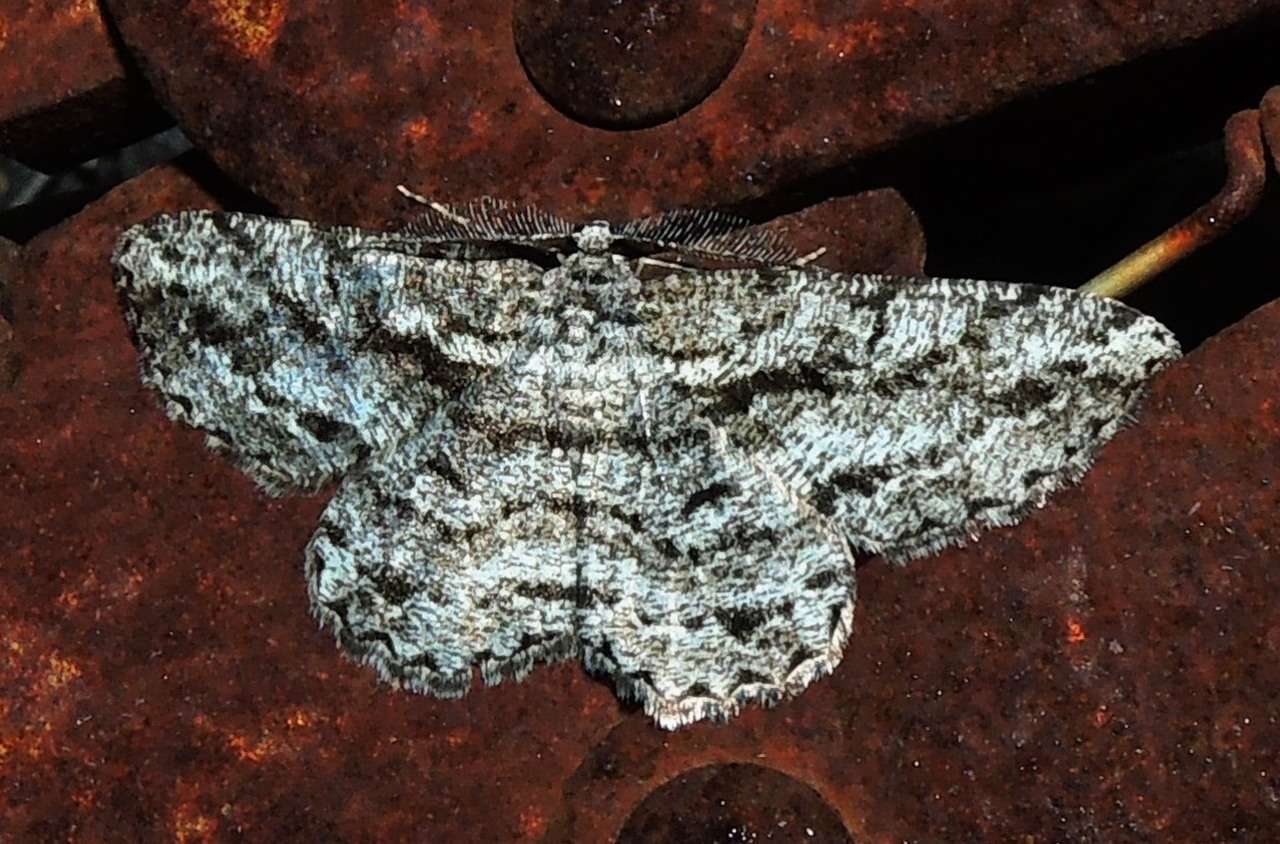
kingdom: Animalia
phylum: Arthropoda
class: Insecta
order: Lepidoptera
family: Geometridae
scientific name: Geometridae
